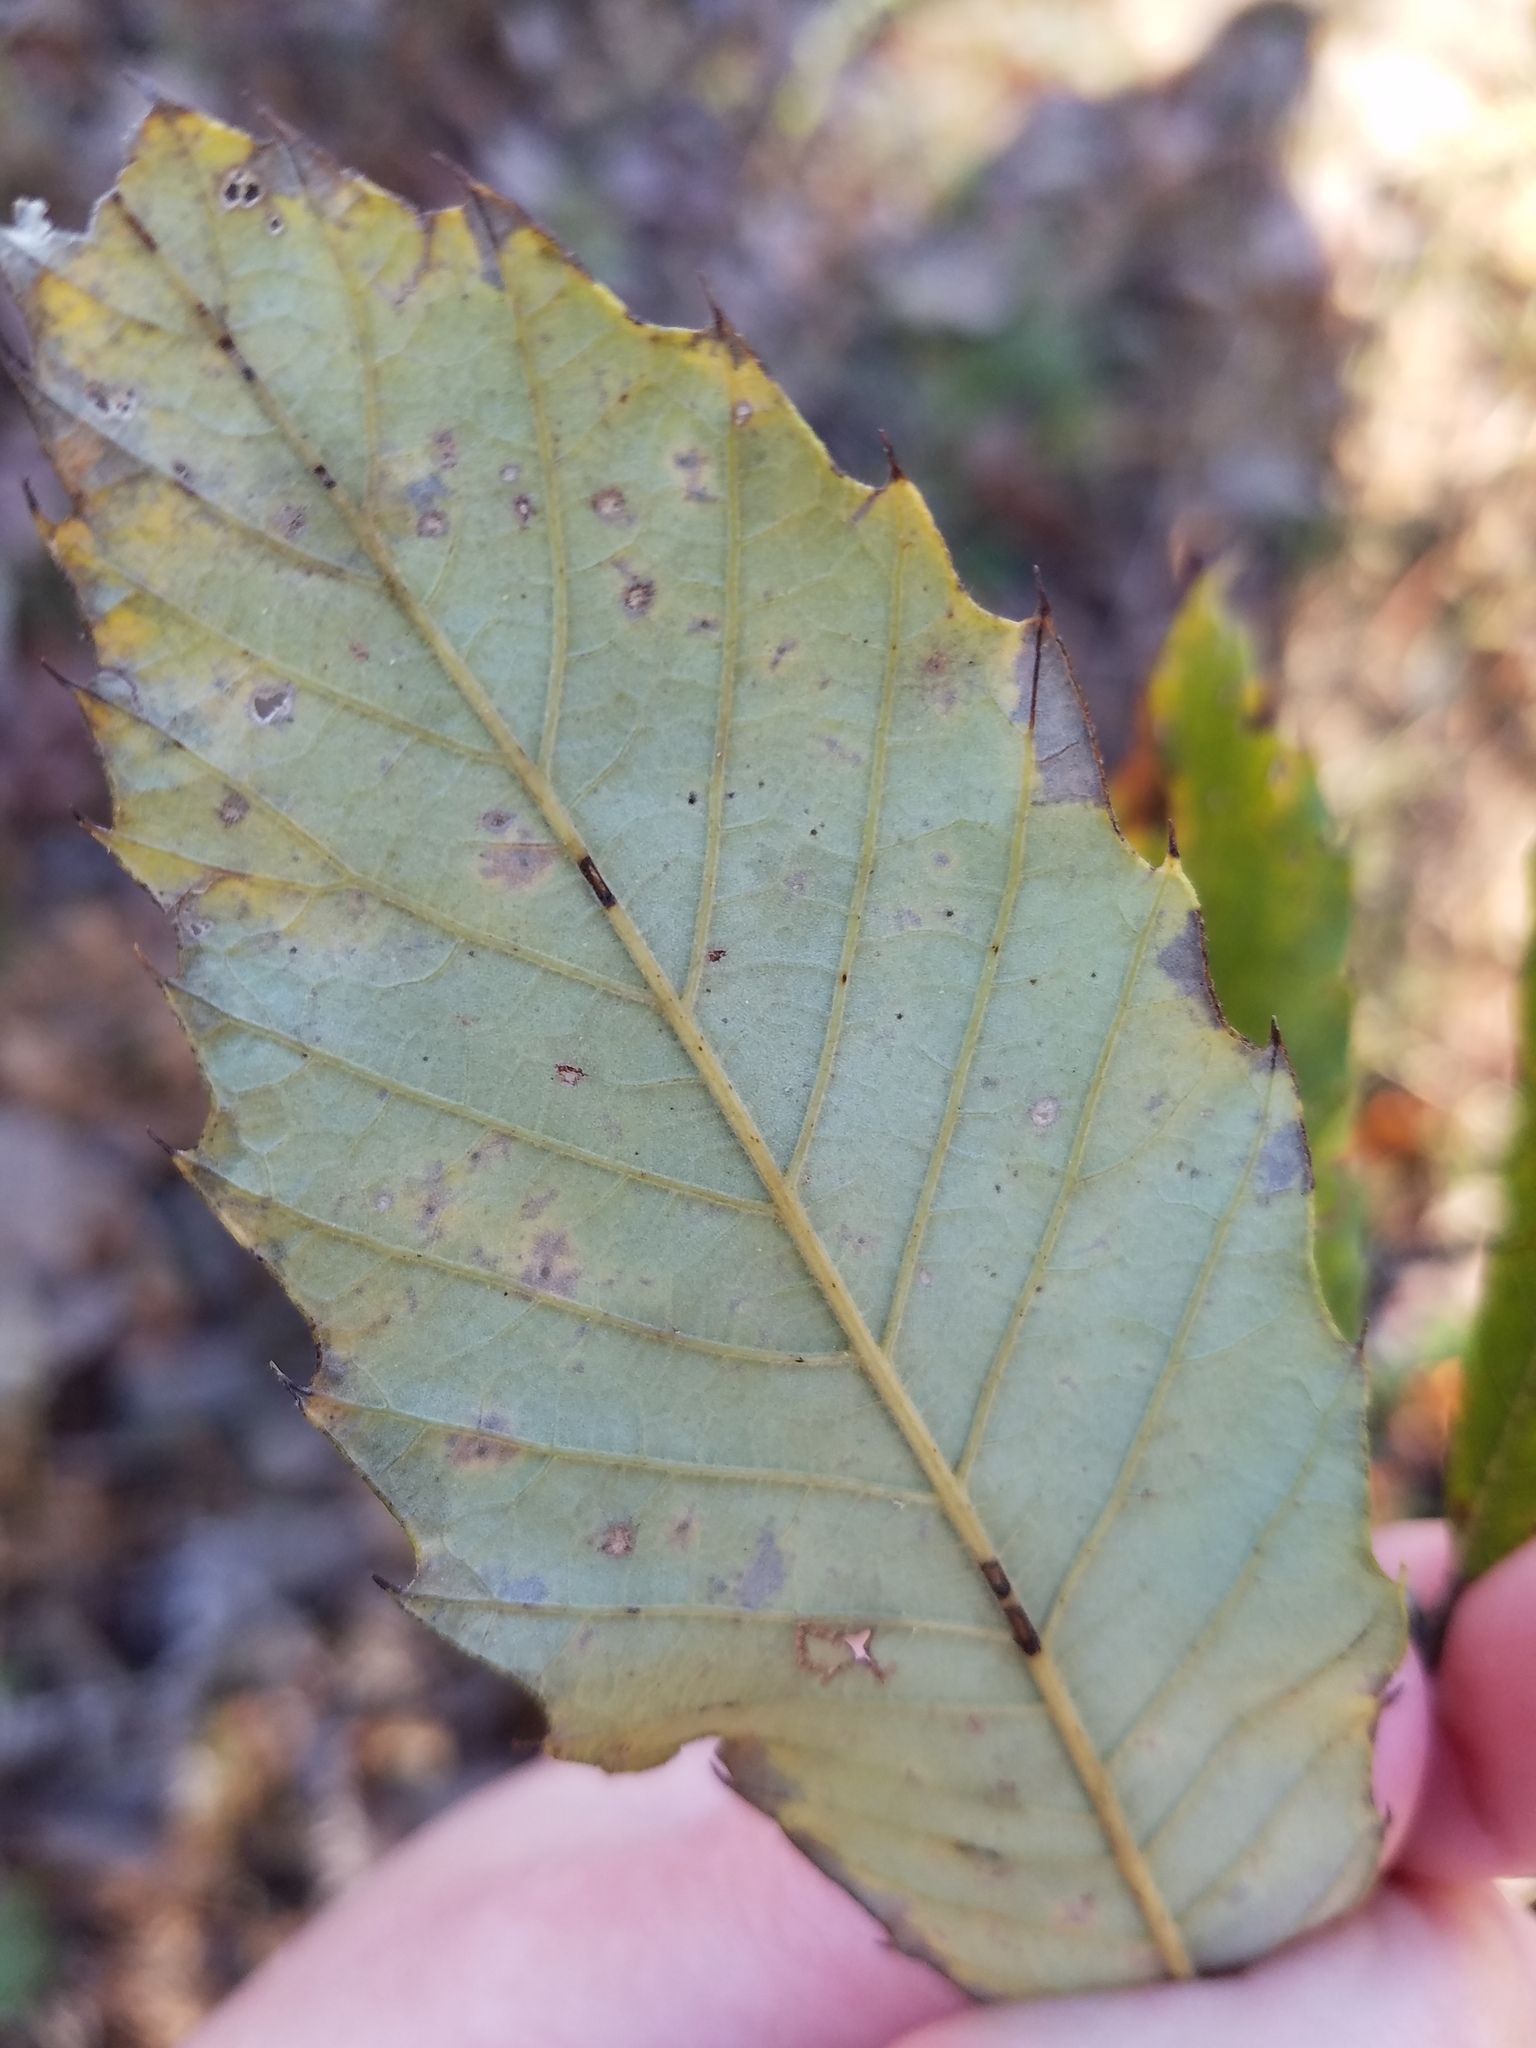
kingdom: Plantae
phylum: Tracheophyta
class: Magnoliopsida
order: Fagales
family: Fagaceae
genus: Castanea
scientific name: Castanea pumila
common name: Chinkapin
